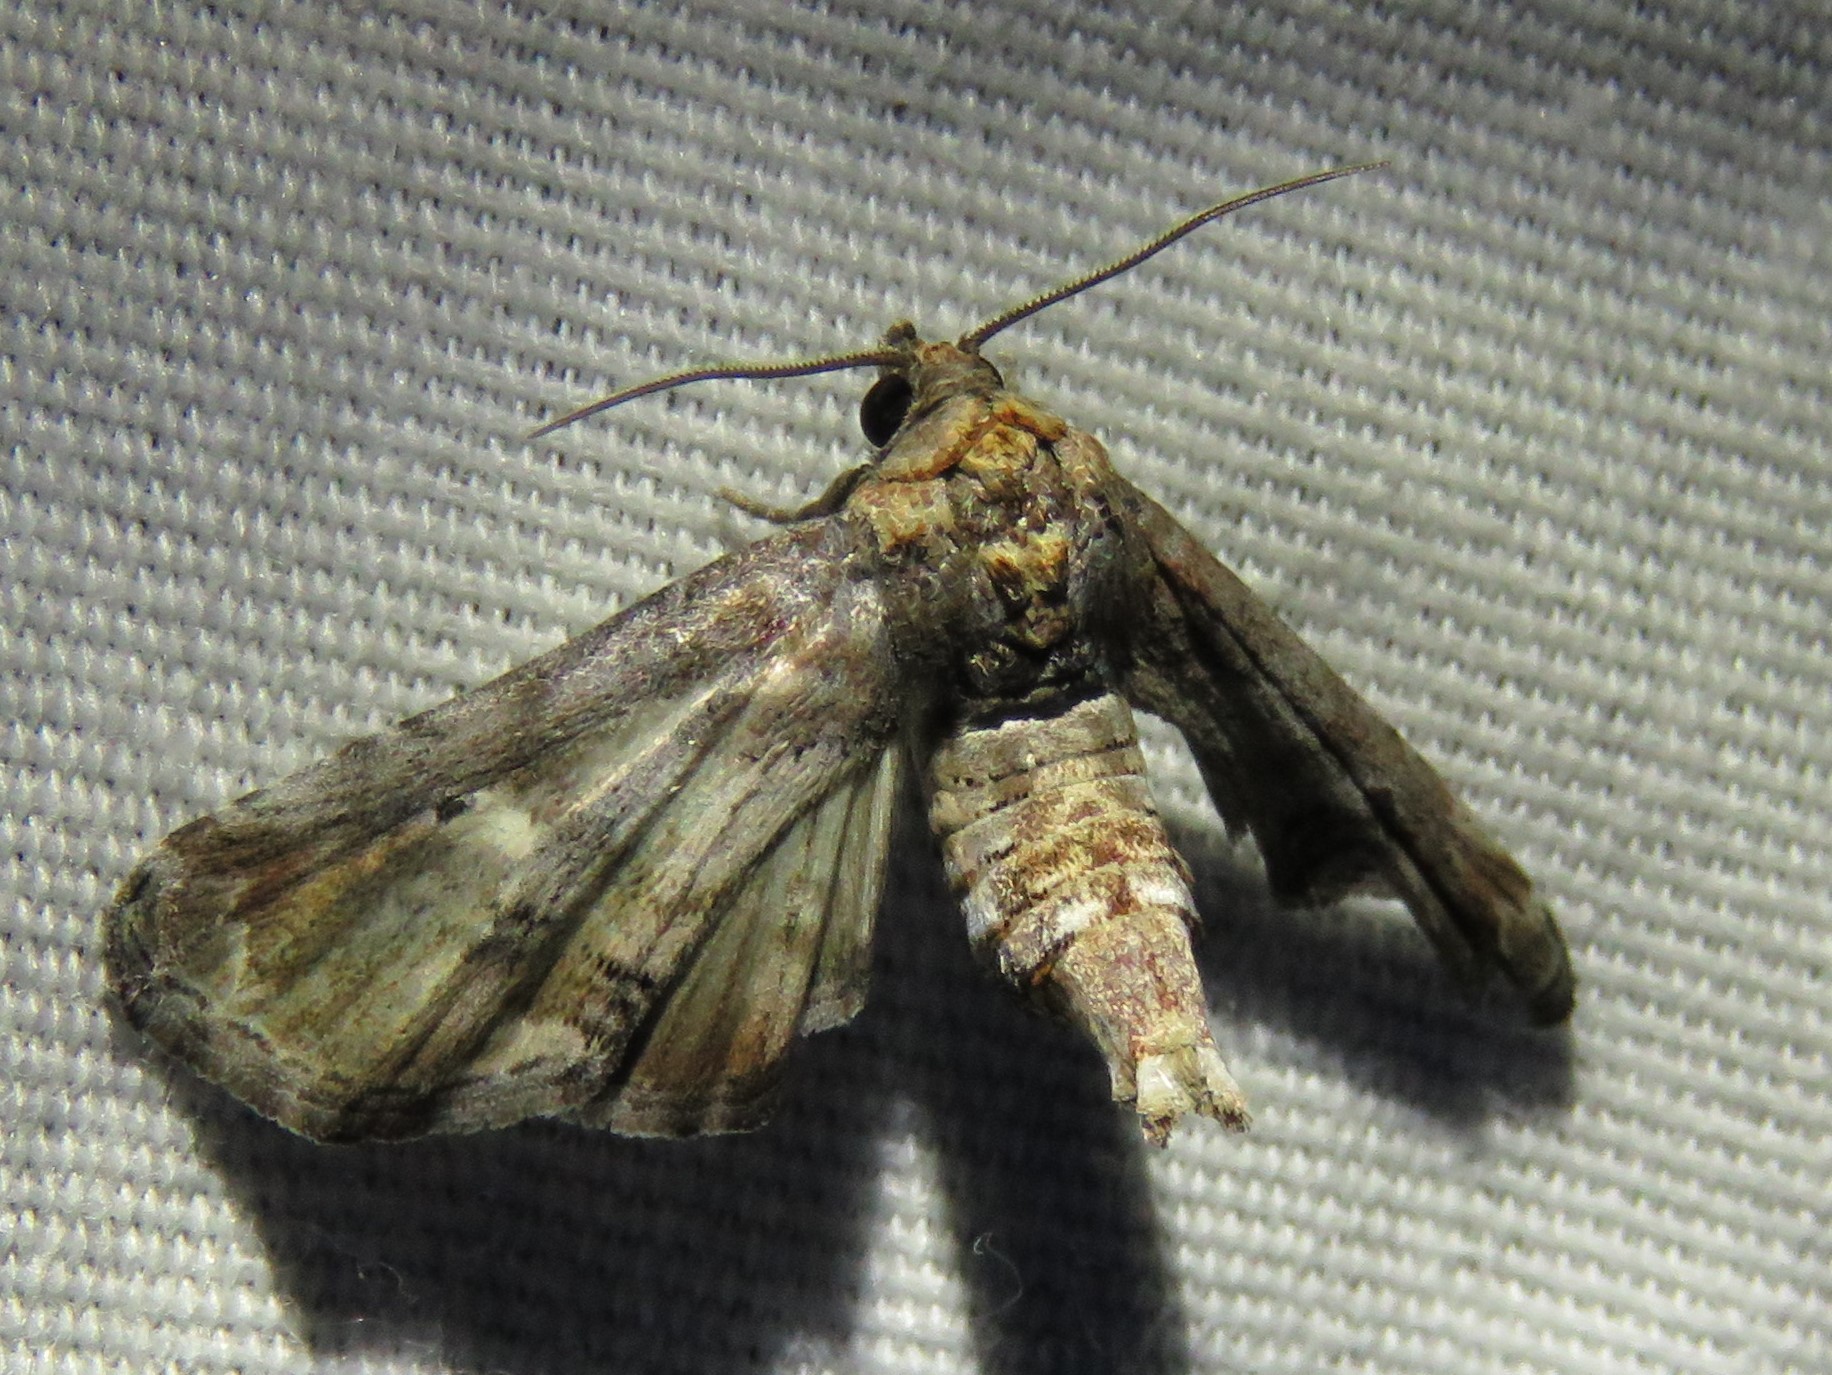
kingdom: Animalia
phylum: Arthropoda
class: Insecta
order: Lepidoptera
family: Euteliidae
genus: Marathyssa
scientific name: Marathyssa inficita
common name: Dark marathyssa moth
